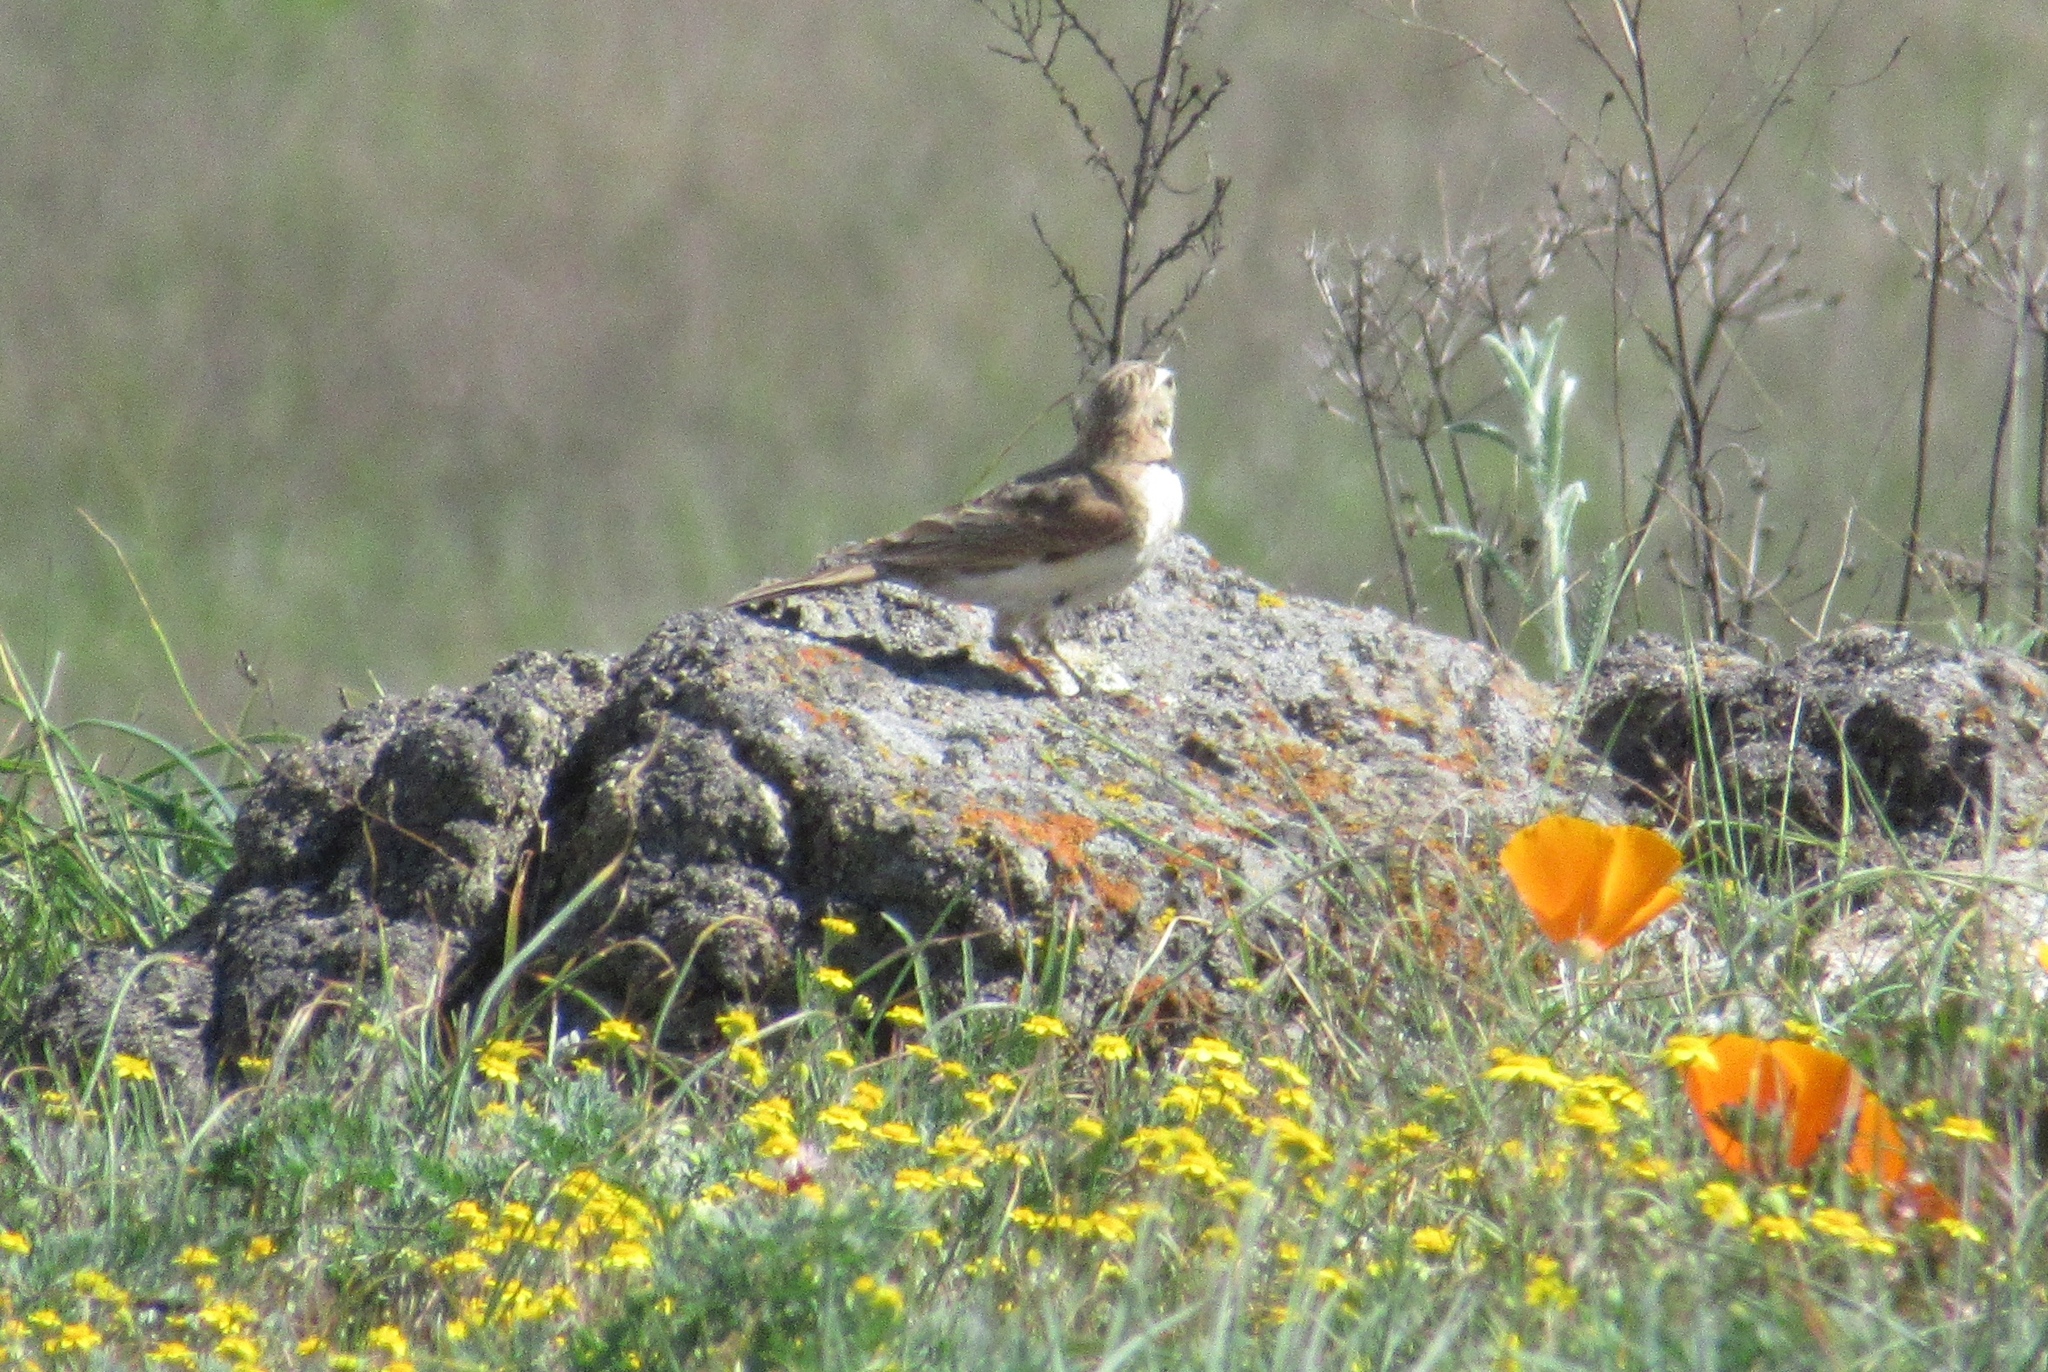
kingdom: Animalia
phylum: Chordata
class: Aves
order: Passeriformes
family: Alaudidae
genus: Eremophila
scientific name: Eremophila alpestris
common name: Horned lark
